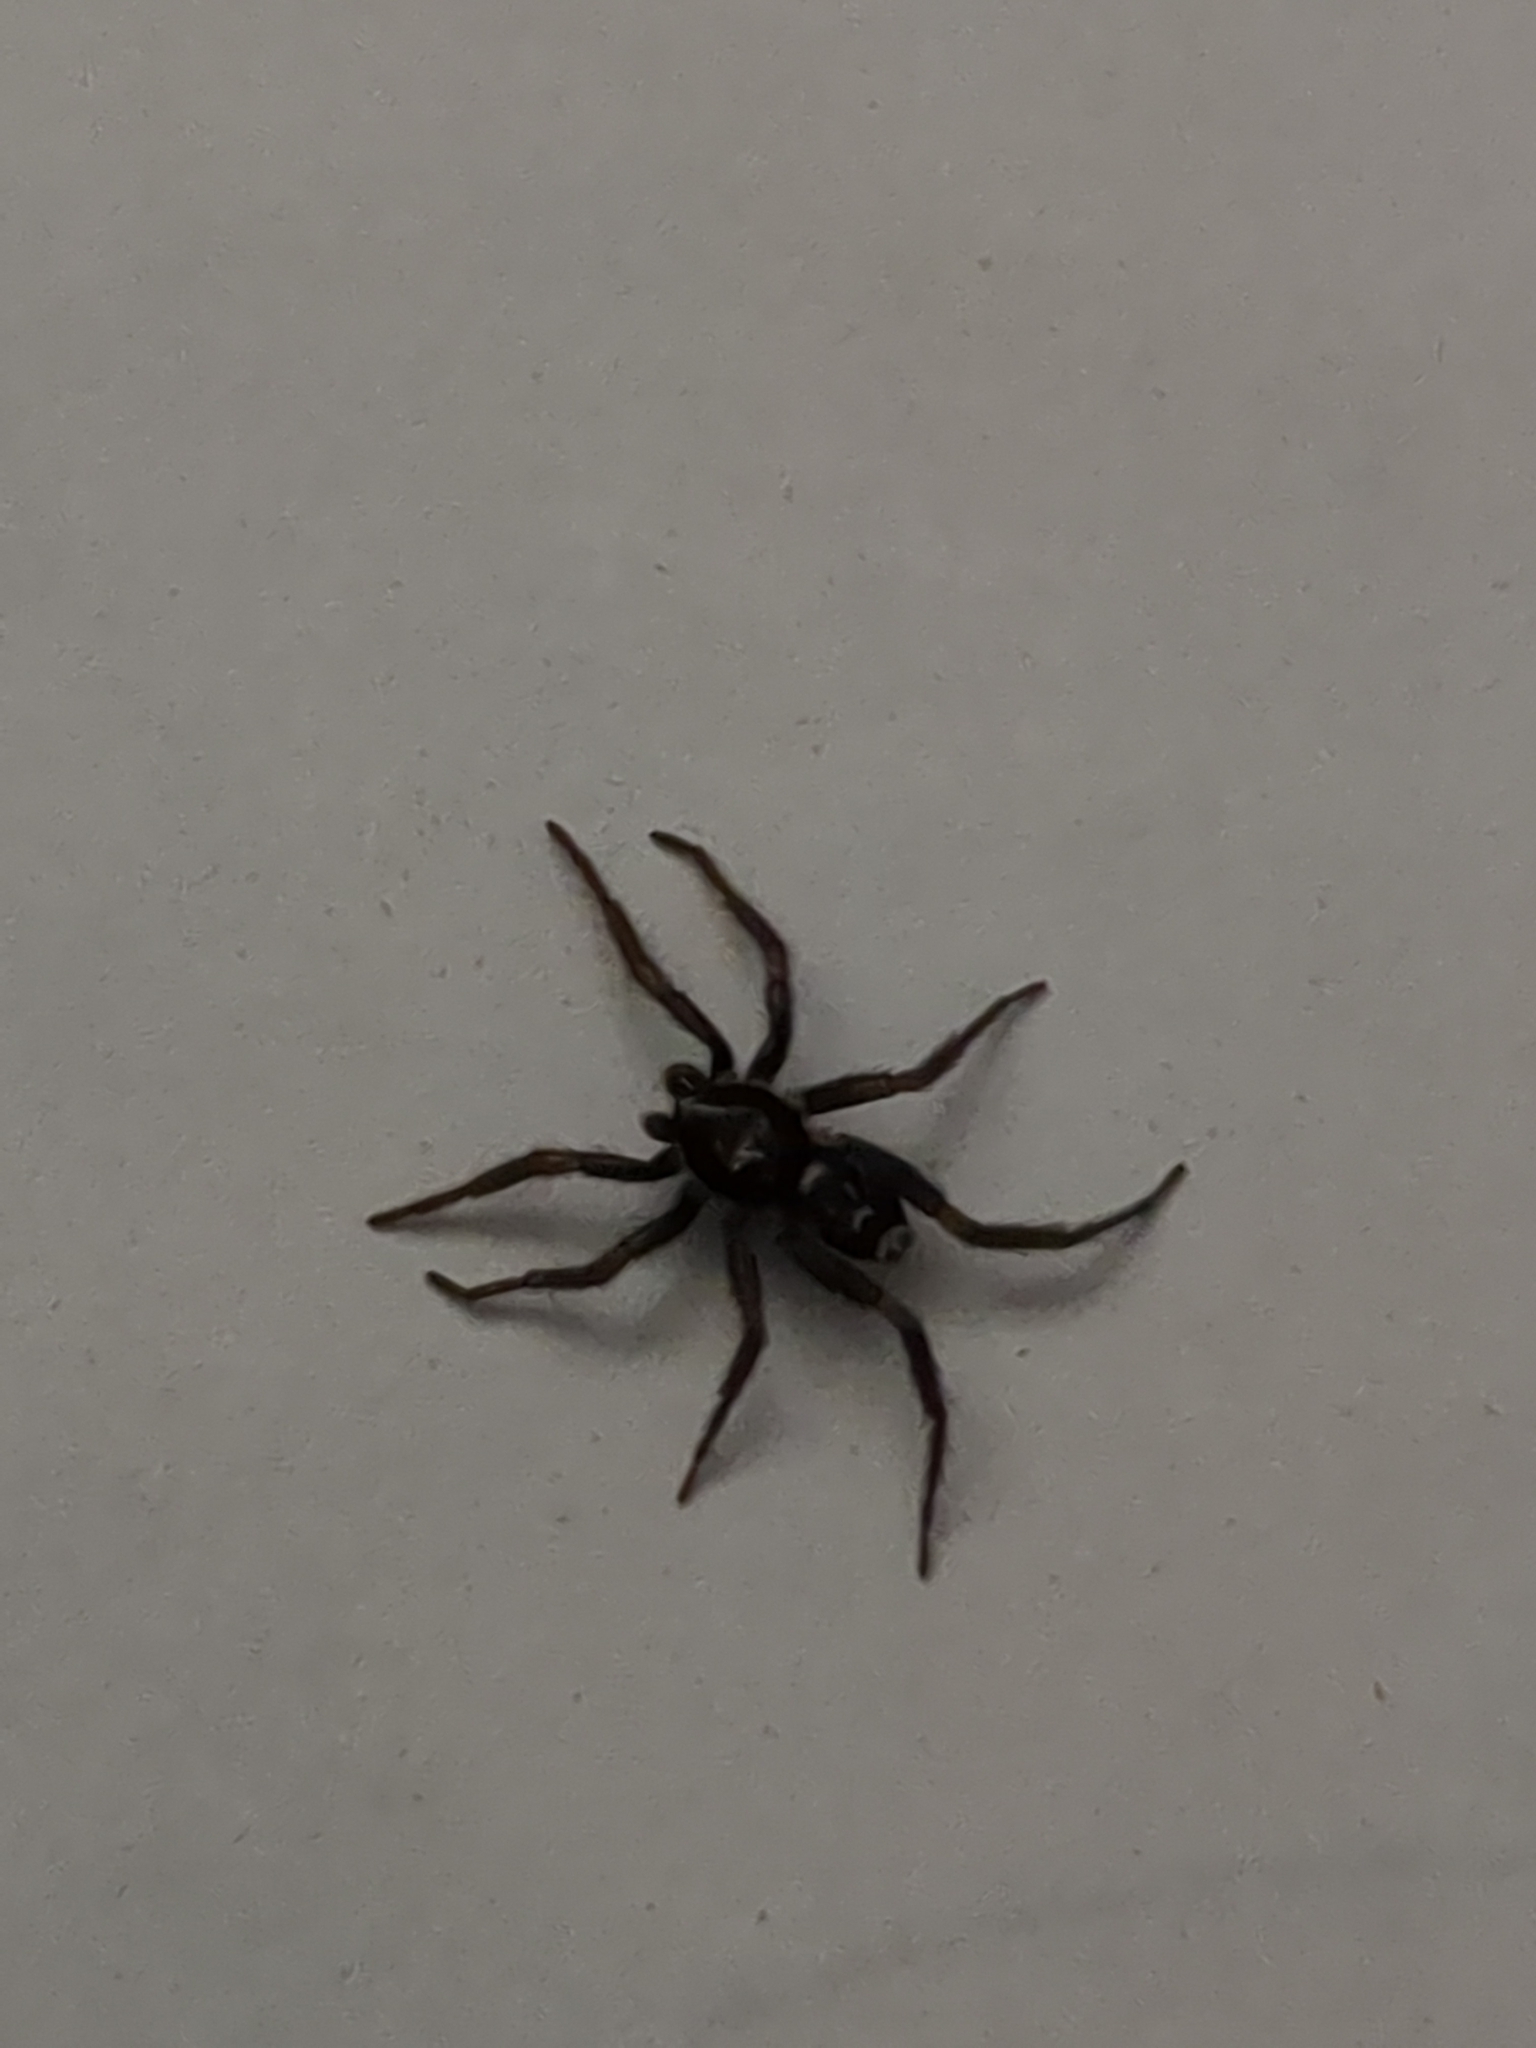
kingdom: Animalia
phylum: Arthropoda
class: Arachnida
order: Araneae
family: Gnaphosidae
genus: Herpyllus
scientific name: Herpyllus ecclesiasticus
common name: Eastern parson spider
